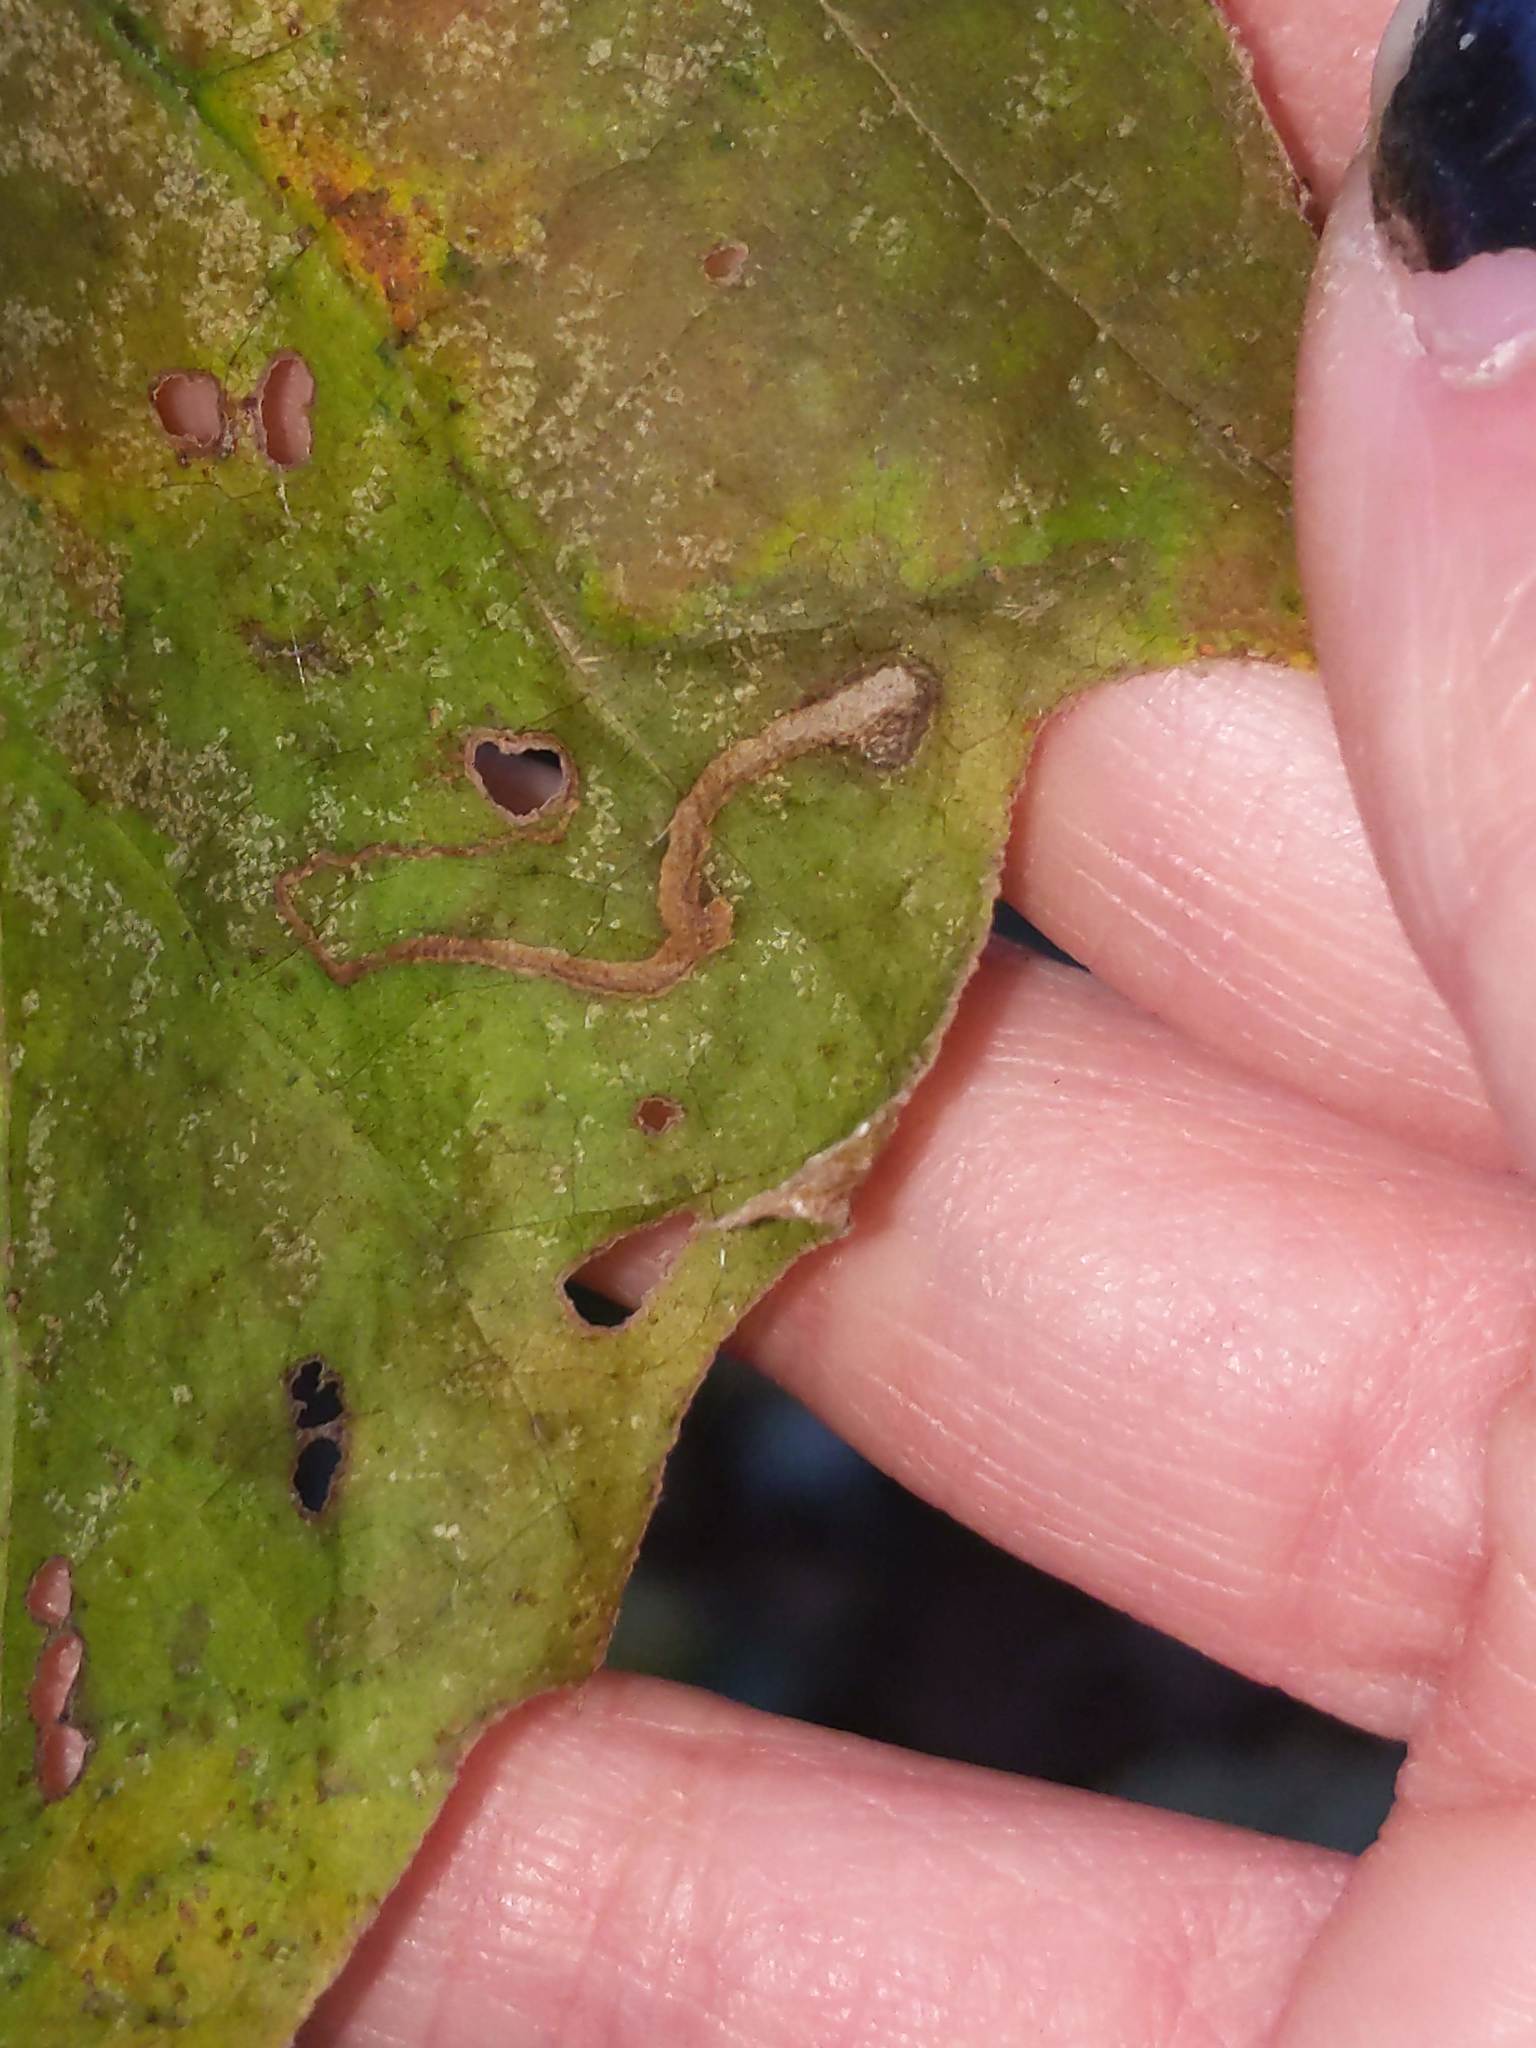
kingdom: Animalia
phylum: Arthropoda
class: Insecta
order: Lepidoptera
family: Nepticulidae
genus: Ectoedemia
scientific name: Ectoedemia clemensella
